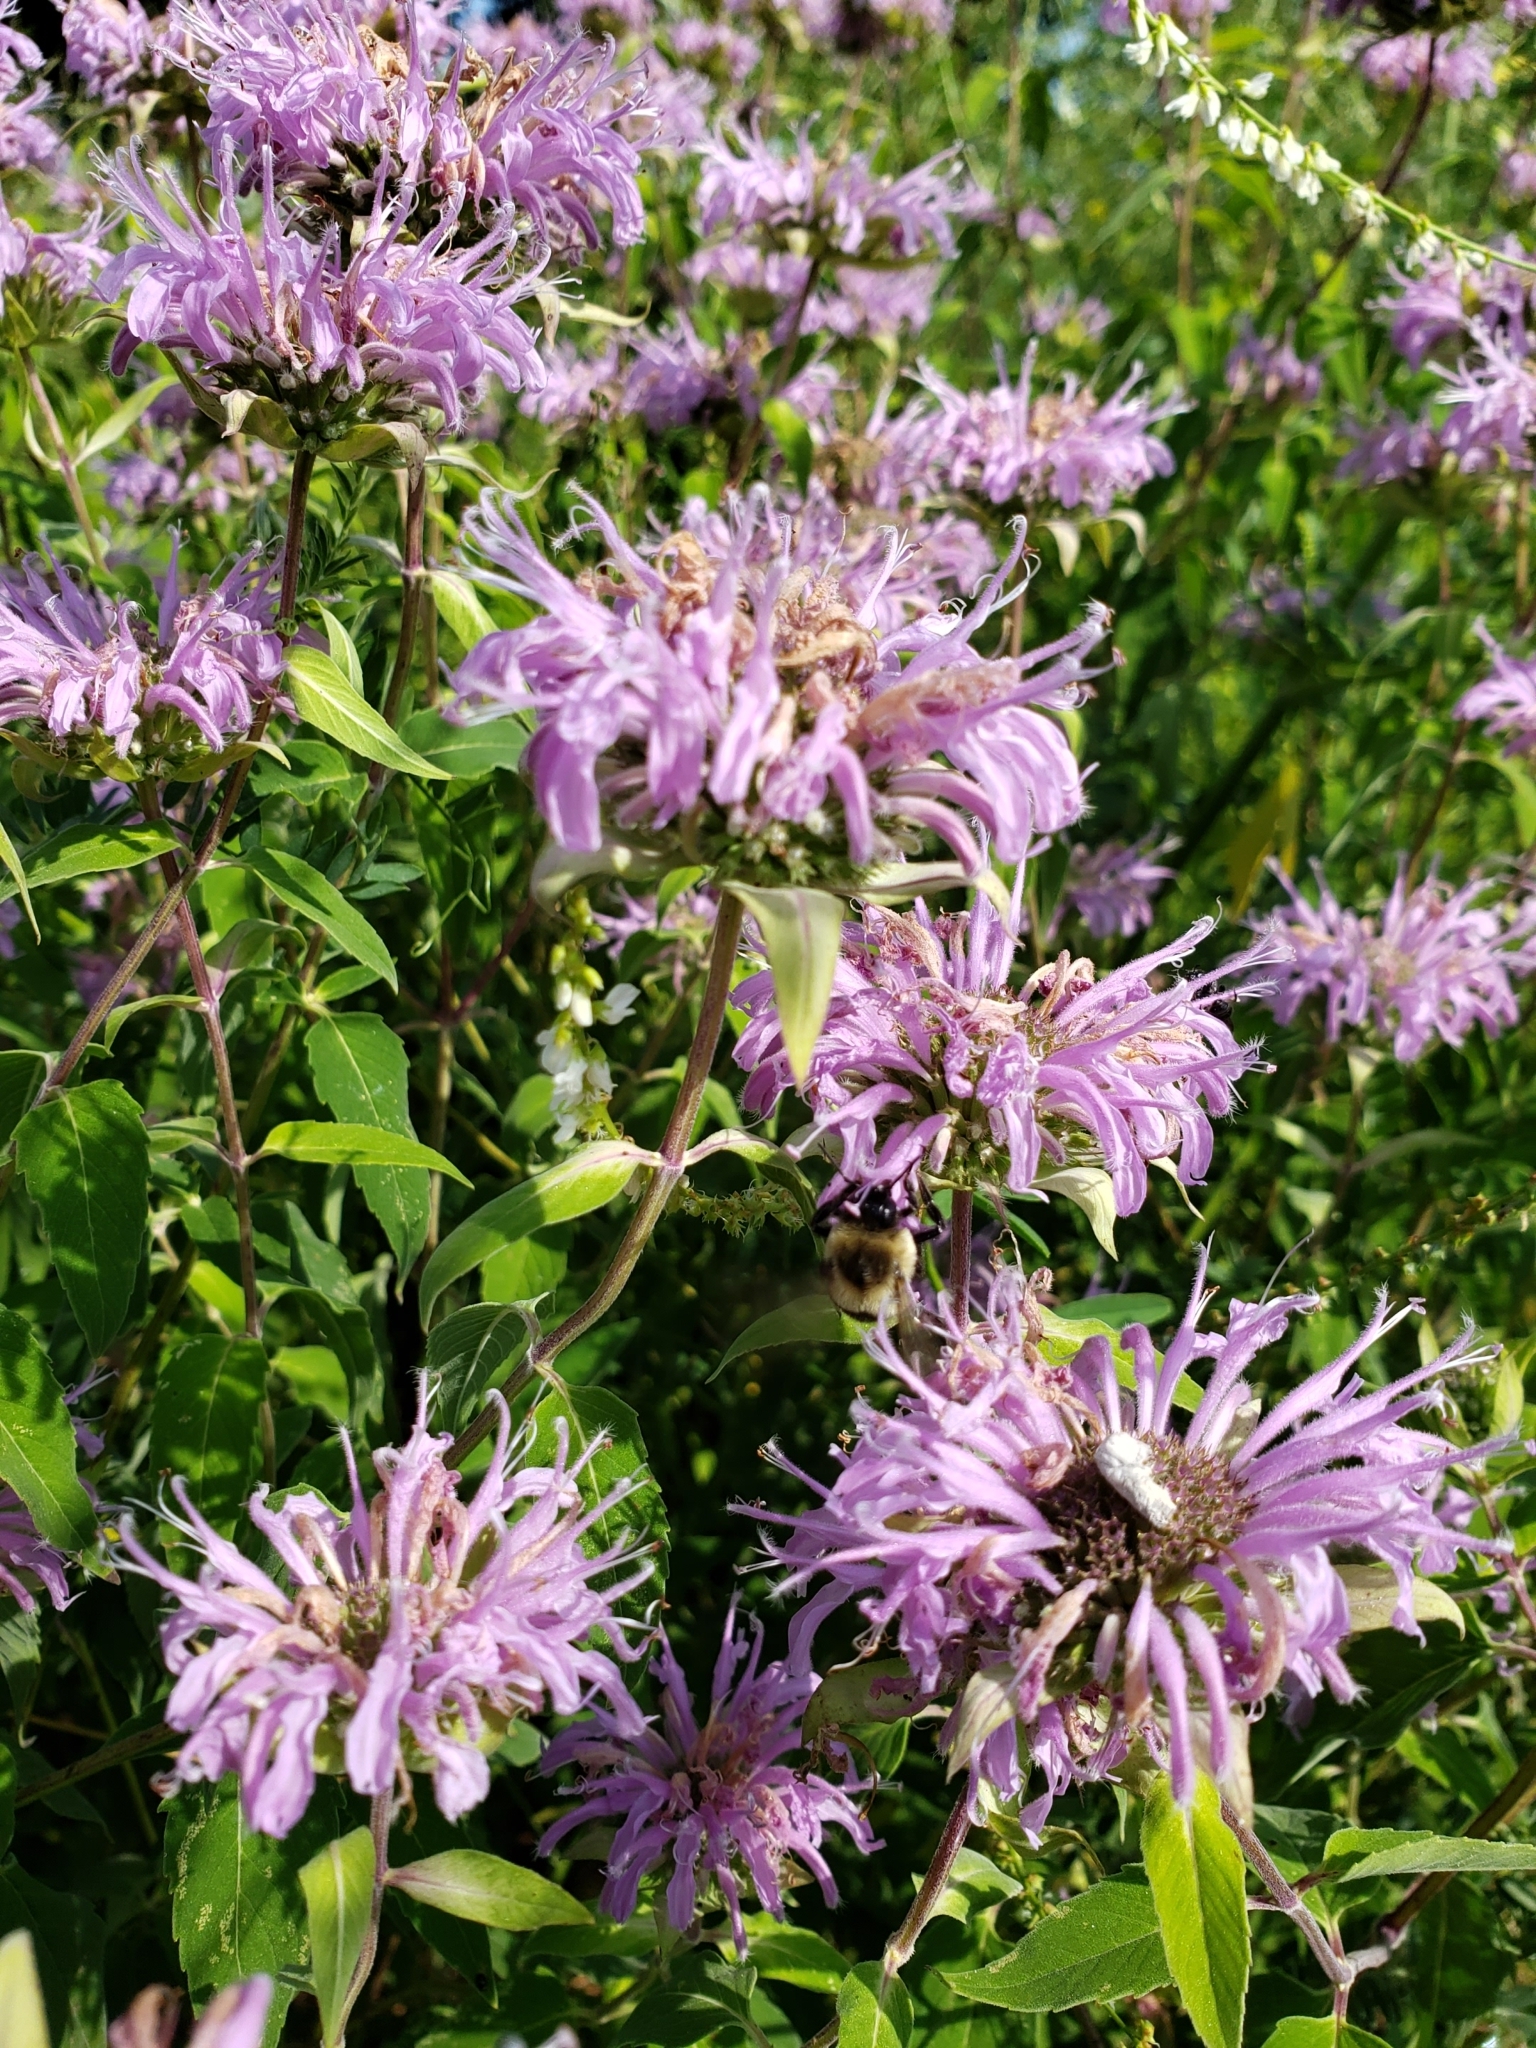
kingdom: Plantae
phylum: Tracheophyta
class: Magnoliopsida
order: Lamiales
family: Lamiaceae
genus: Monarda
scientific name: Monarda fistulosa
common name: Purple beebalm
